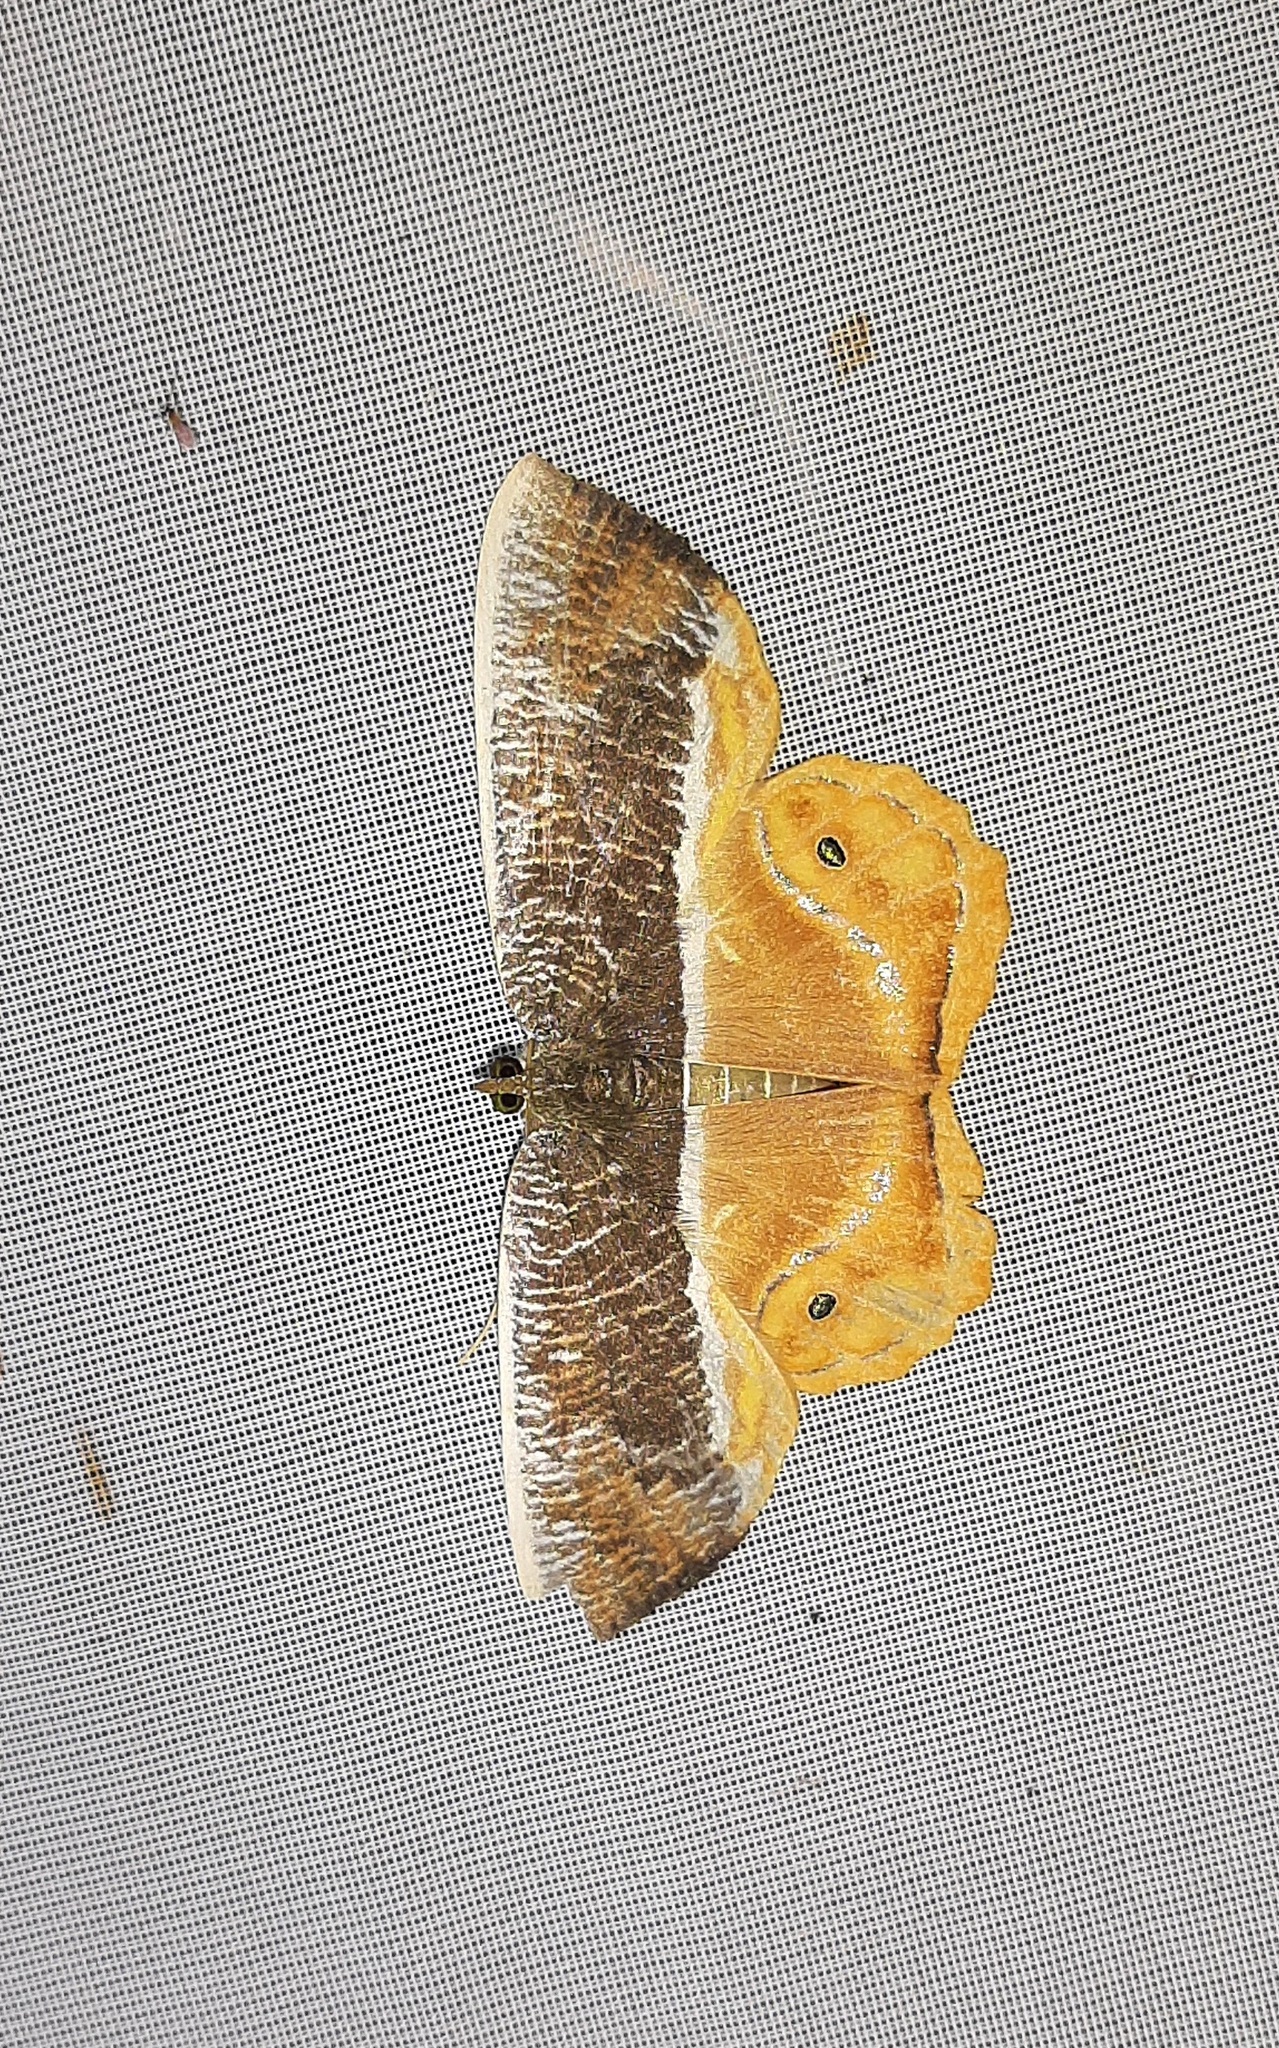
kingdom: Animalia
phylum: Arthropoda
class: Insecta
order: Lepidoptera
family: Geometridae
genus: Opisthoxia
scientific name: Opisthoxia branickiaria
